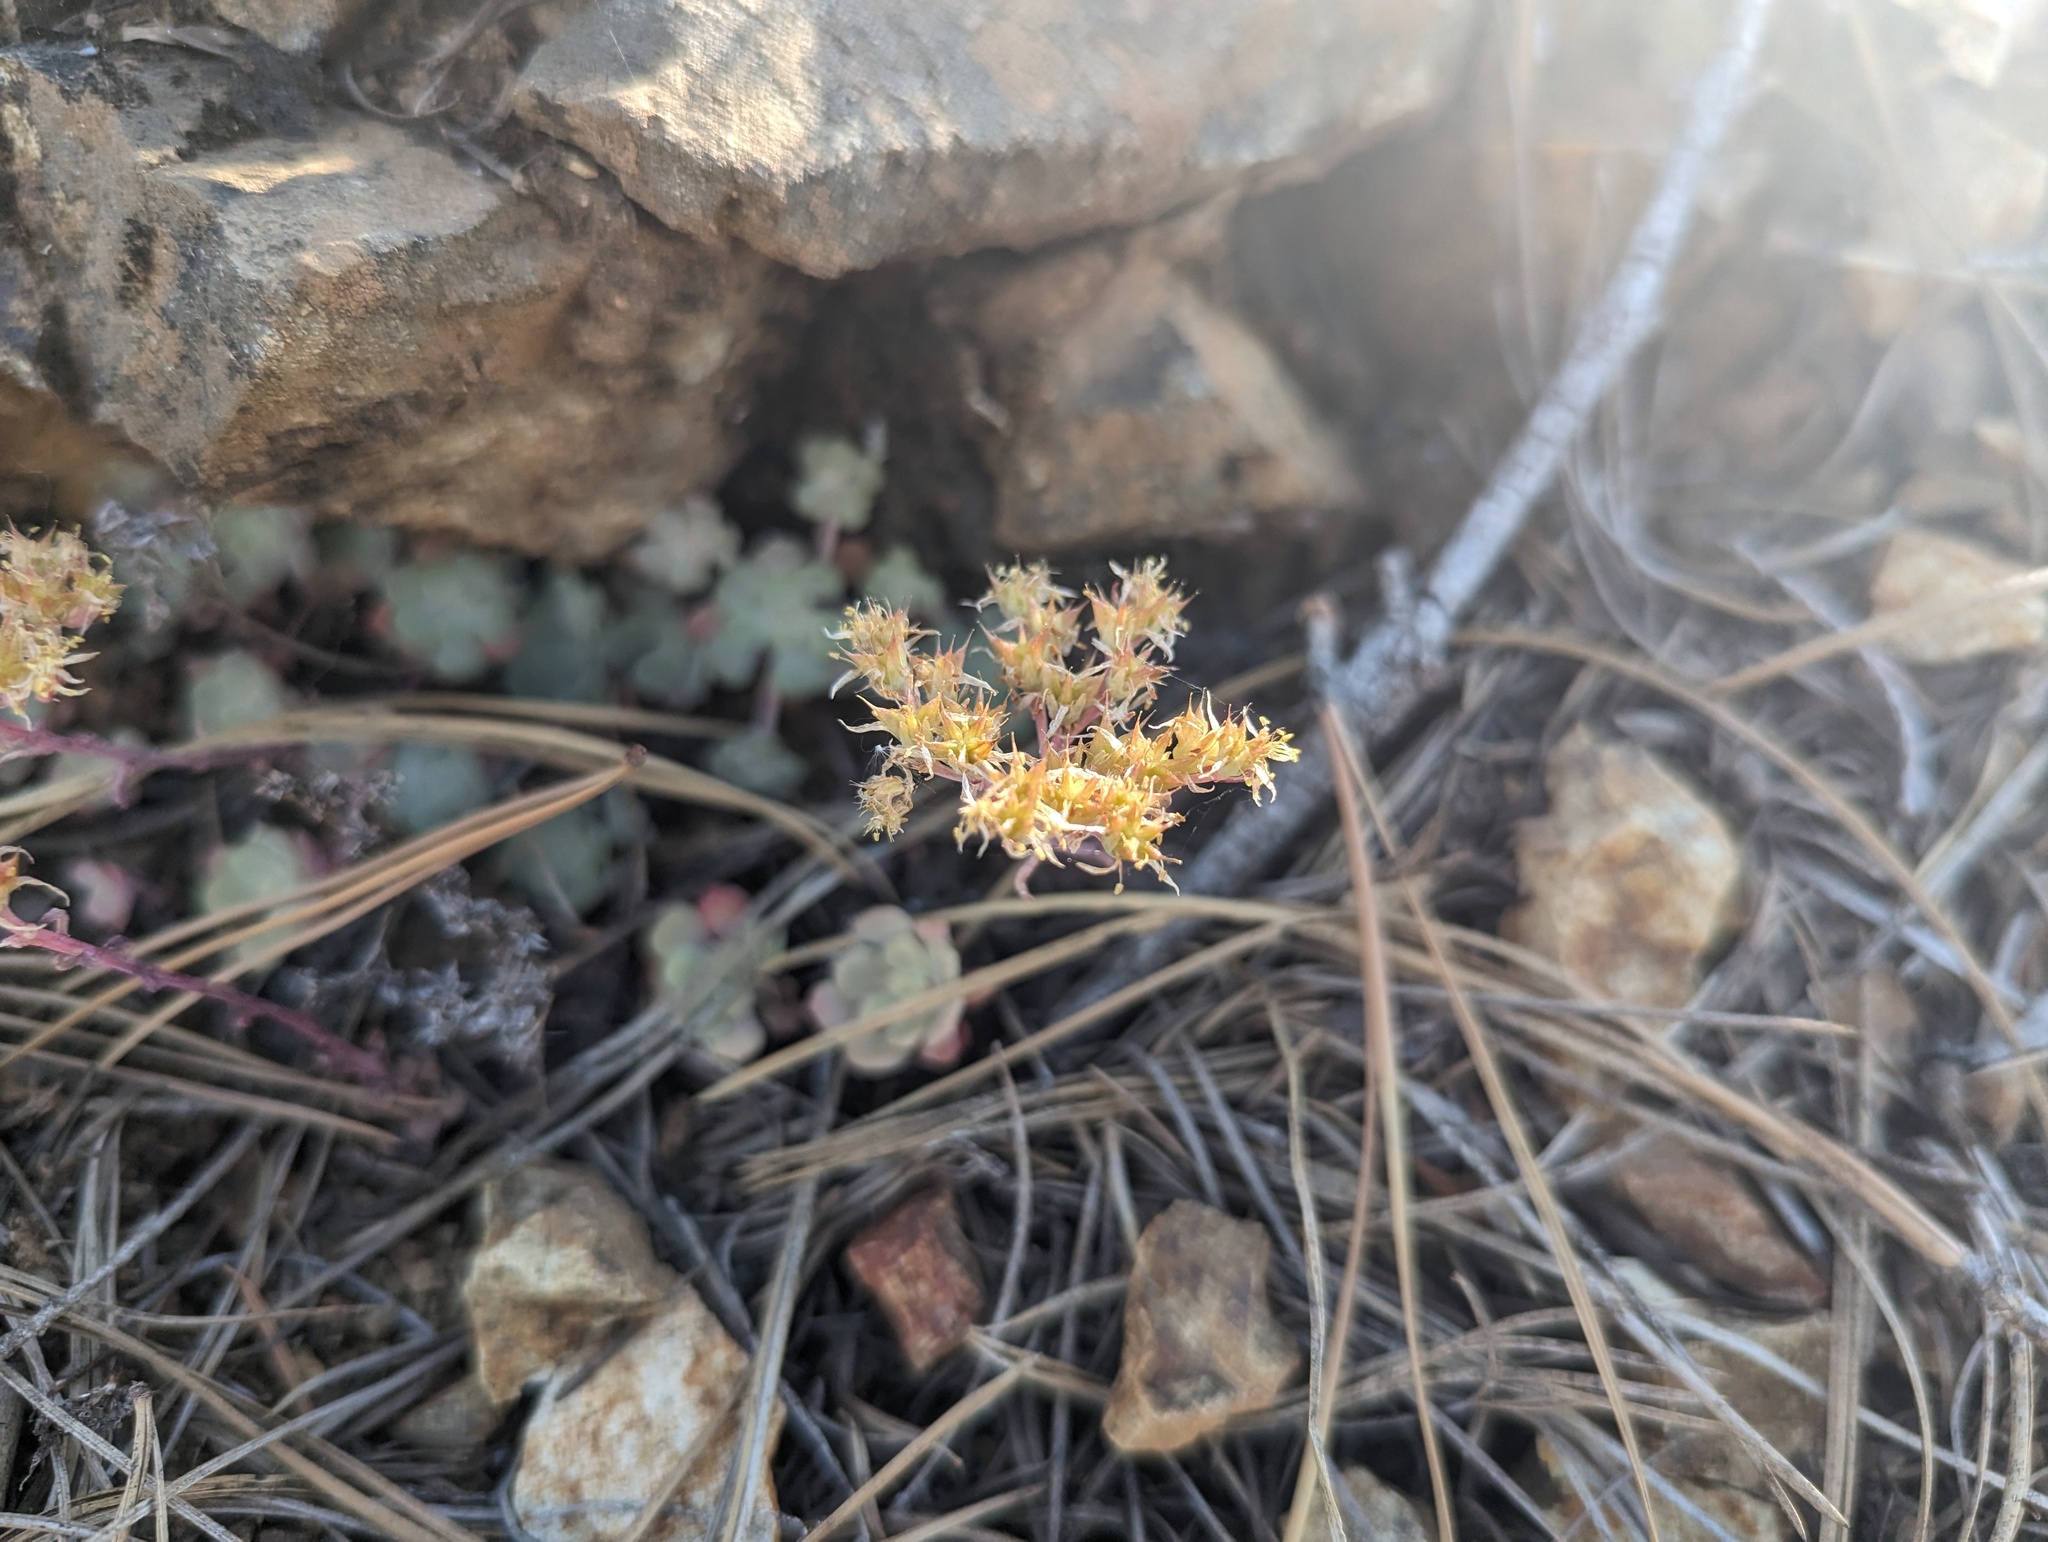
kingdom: Plantae
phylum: Tracheophyta
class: Magnoliopsida
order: Saxifragales
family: Crassulaceae
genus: Sedum
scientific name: Sedum spathulifolium
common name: Colorado stonecrop
